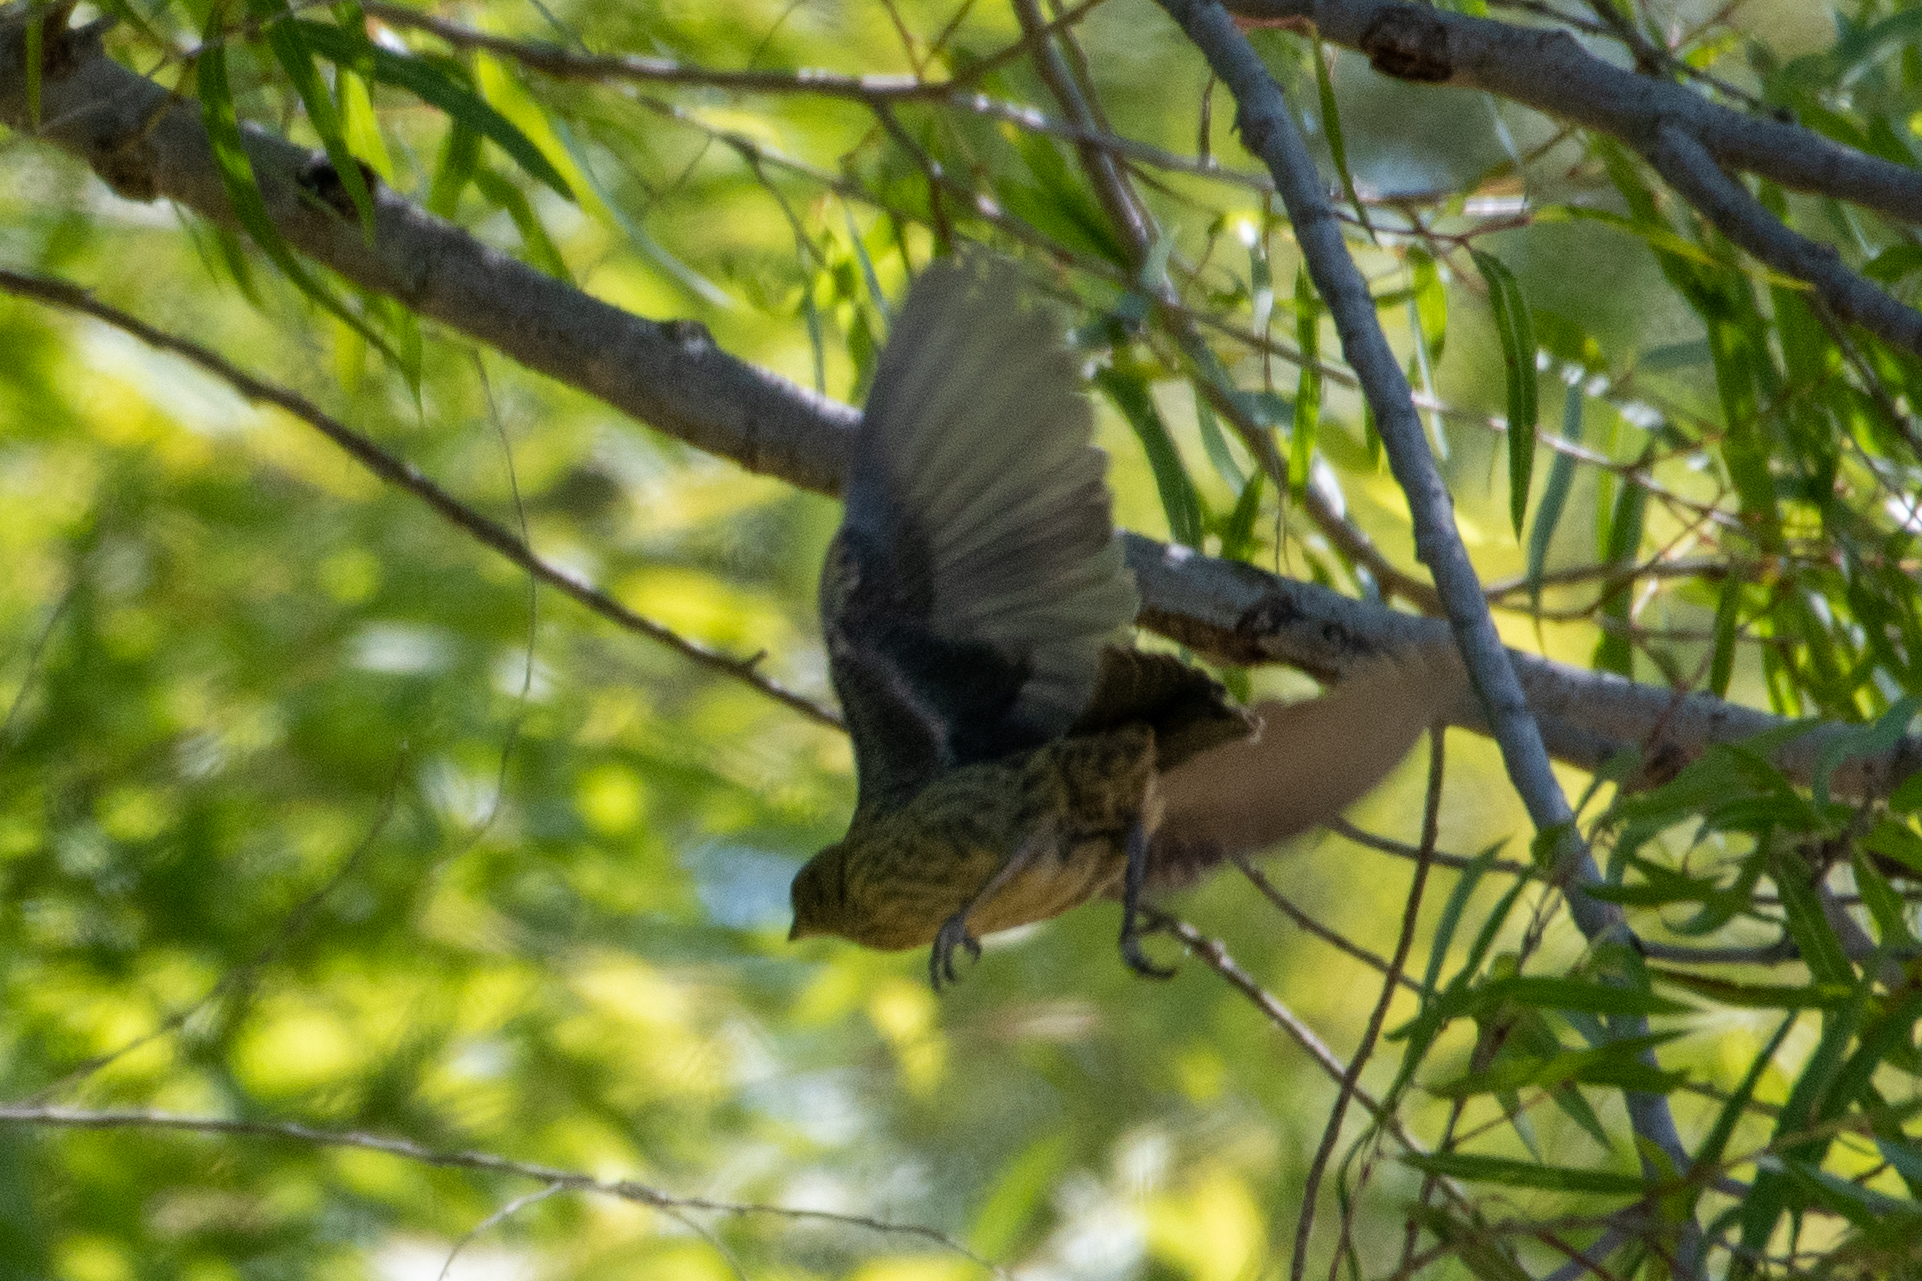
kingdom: Animalia
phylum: Chordata
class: Aves
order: Passeriformes
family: Icteridae
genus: Molothrus
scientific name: Molothrus ater
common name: Brown-headed cowbird
